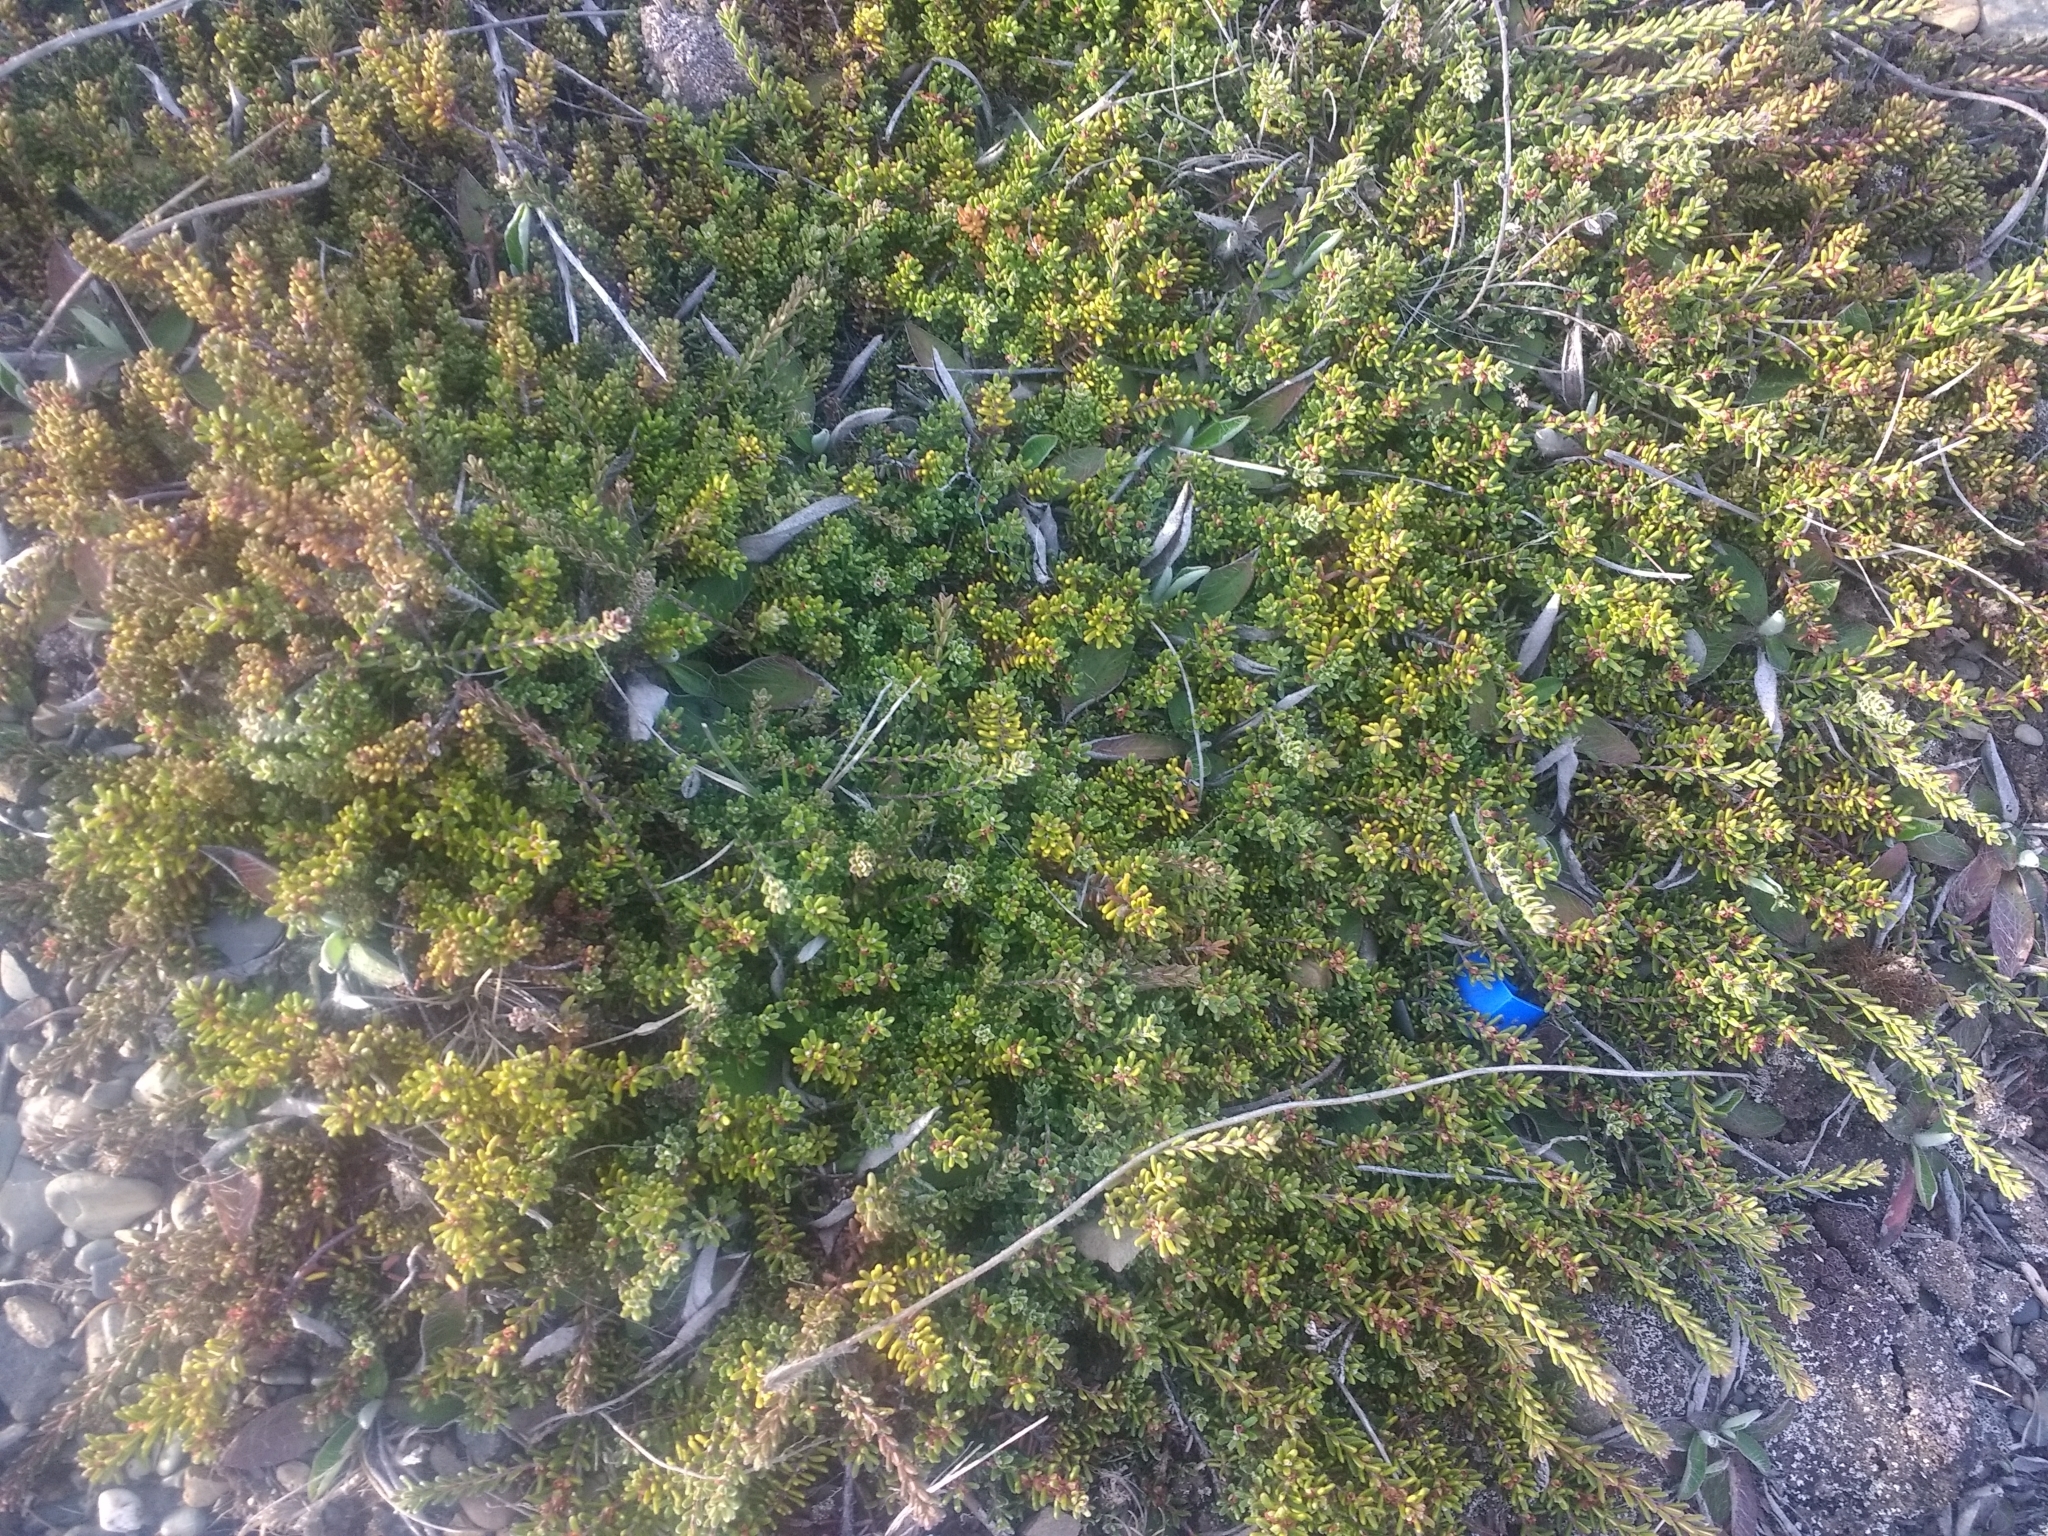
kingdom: Plantae
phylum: Tracheophyta
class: Magnoliopsida
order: Ericales
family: Ericaceae
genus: Empetrum
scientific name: Empetrum rubrum
